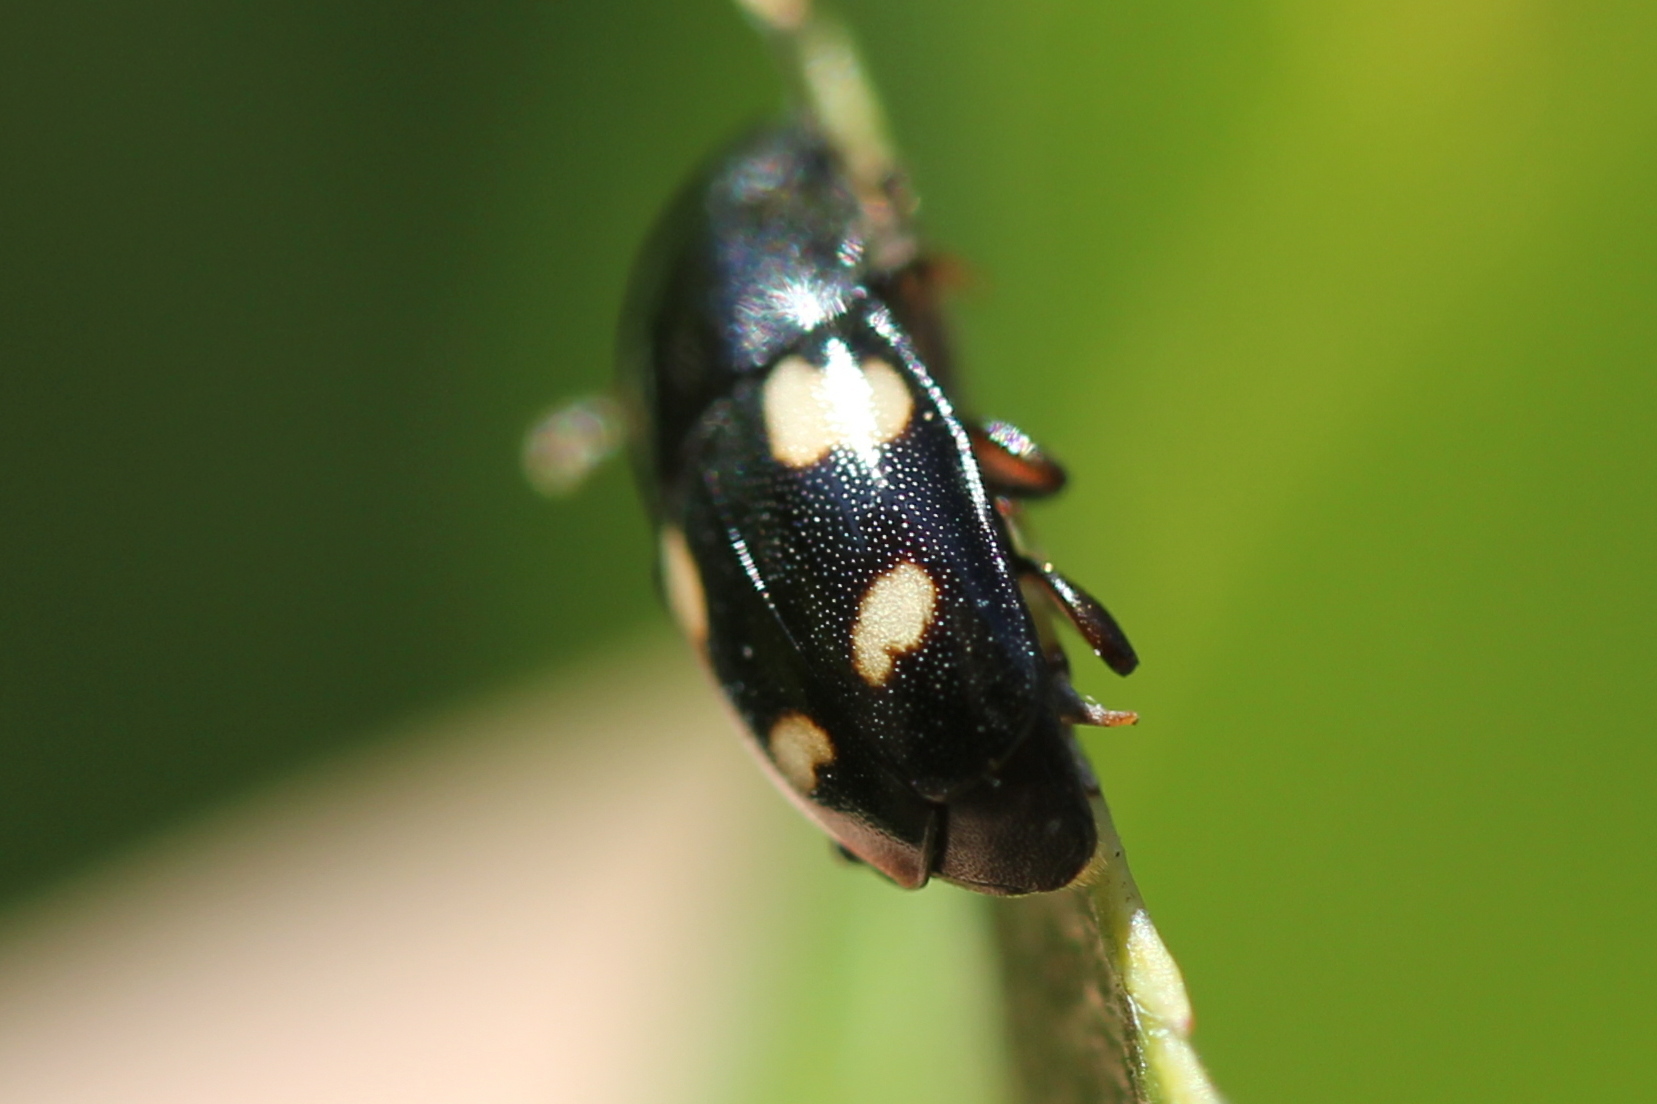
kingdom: Animalia
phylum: Arthropoda
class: Insecta
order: Coleoptera
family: Nitidulidae
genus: Glischrochilus
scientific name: Glischrochilus quadrisignatus
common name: Picnic beetle
